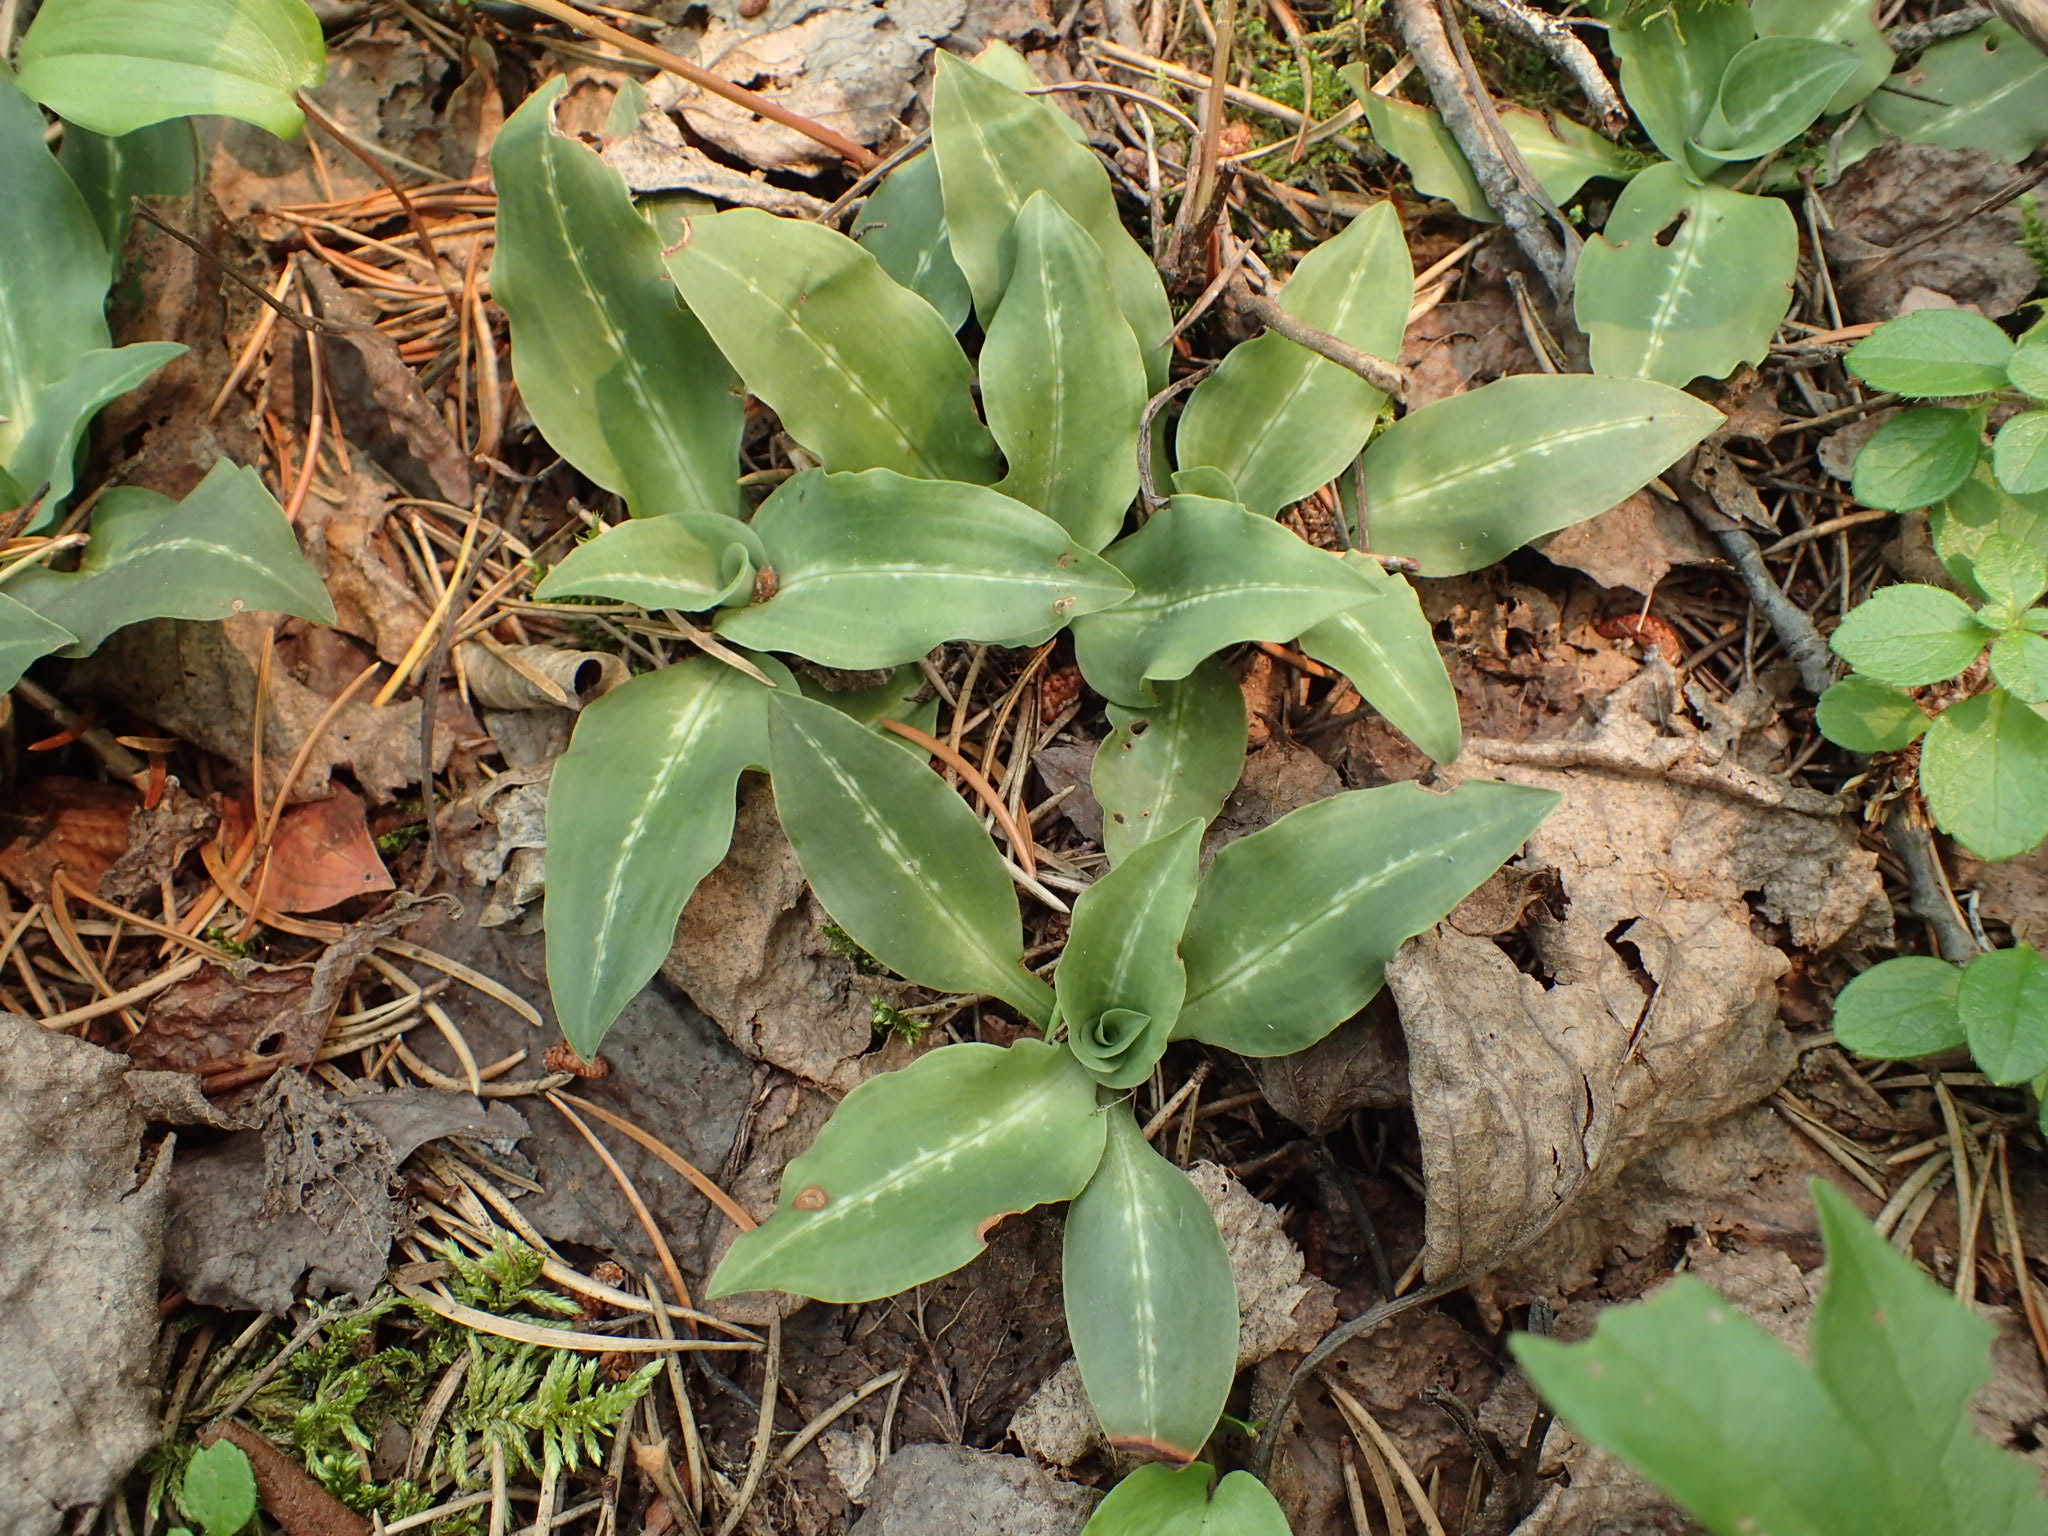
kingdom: Plantae
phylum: Tracheophyta
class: Liliopsida
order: Asparagales
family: Orchidaceae
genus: Goodyera
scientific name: Goodyera oblongifolia
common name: Giant rattlesnake-plantain
